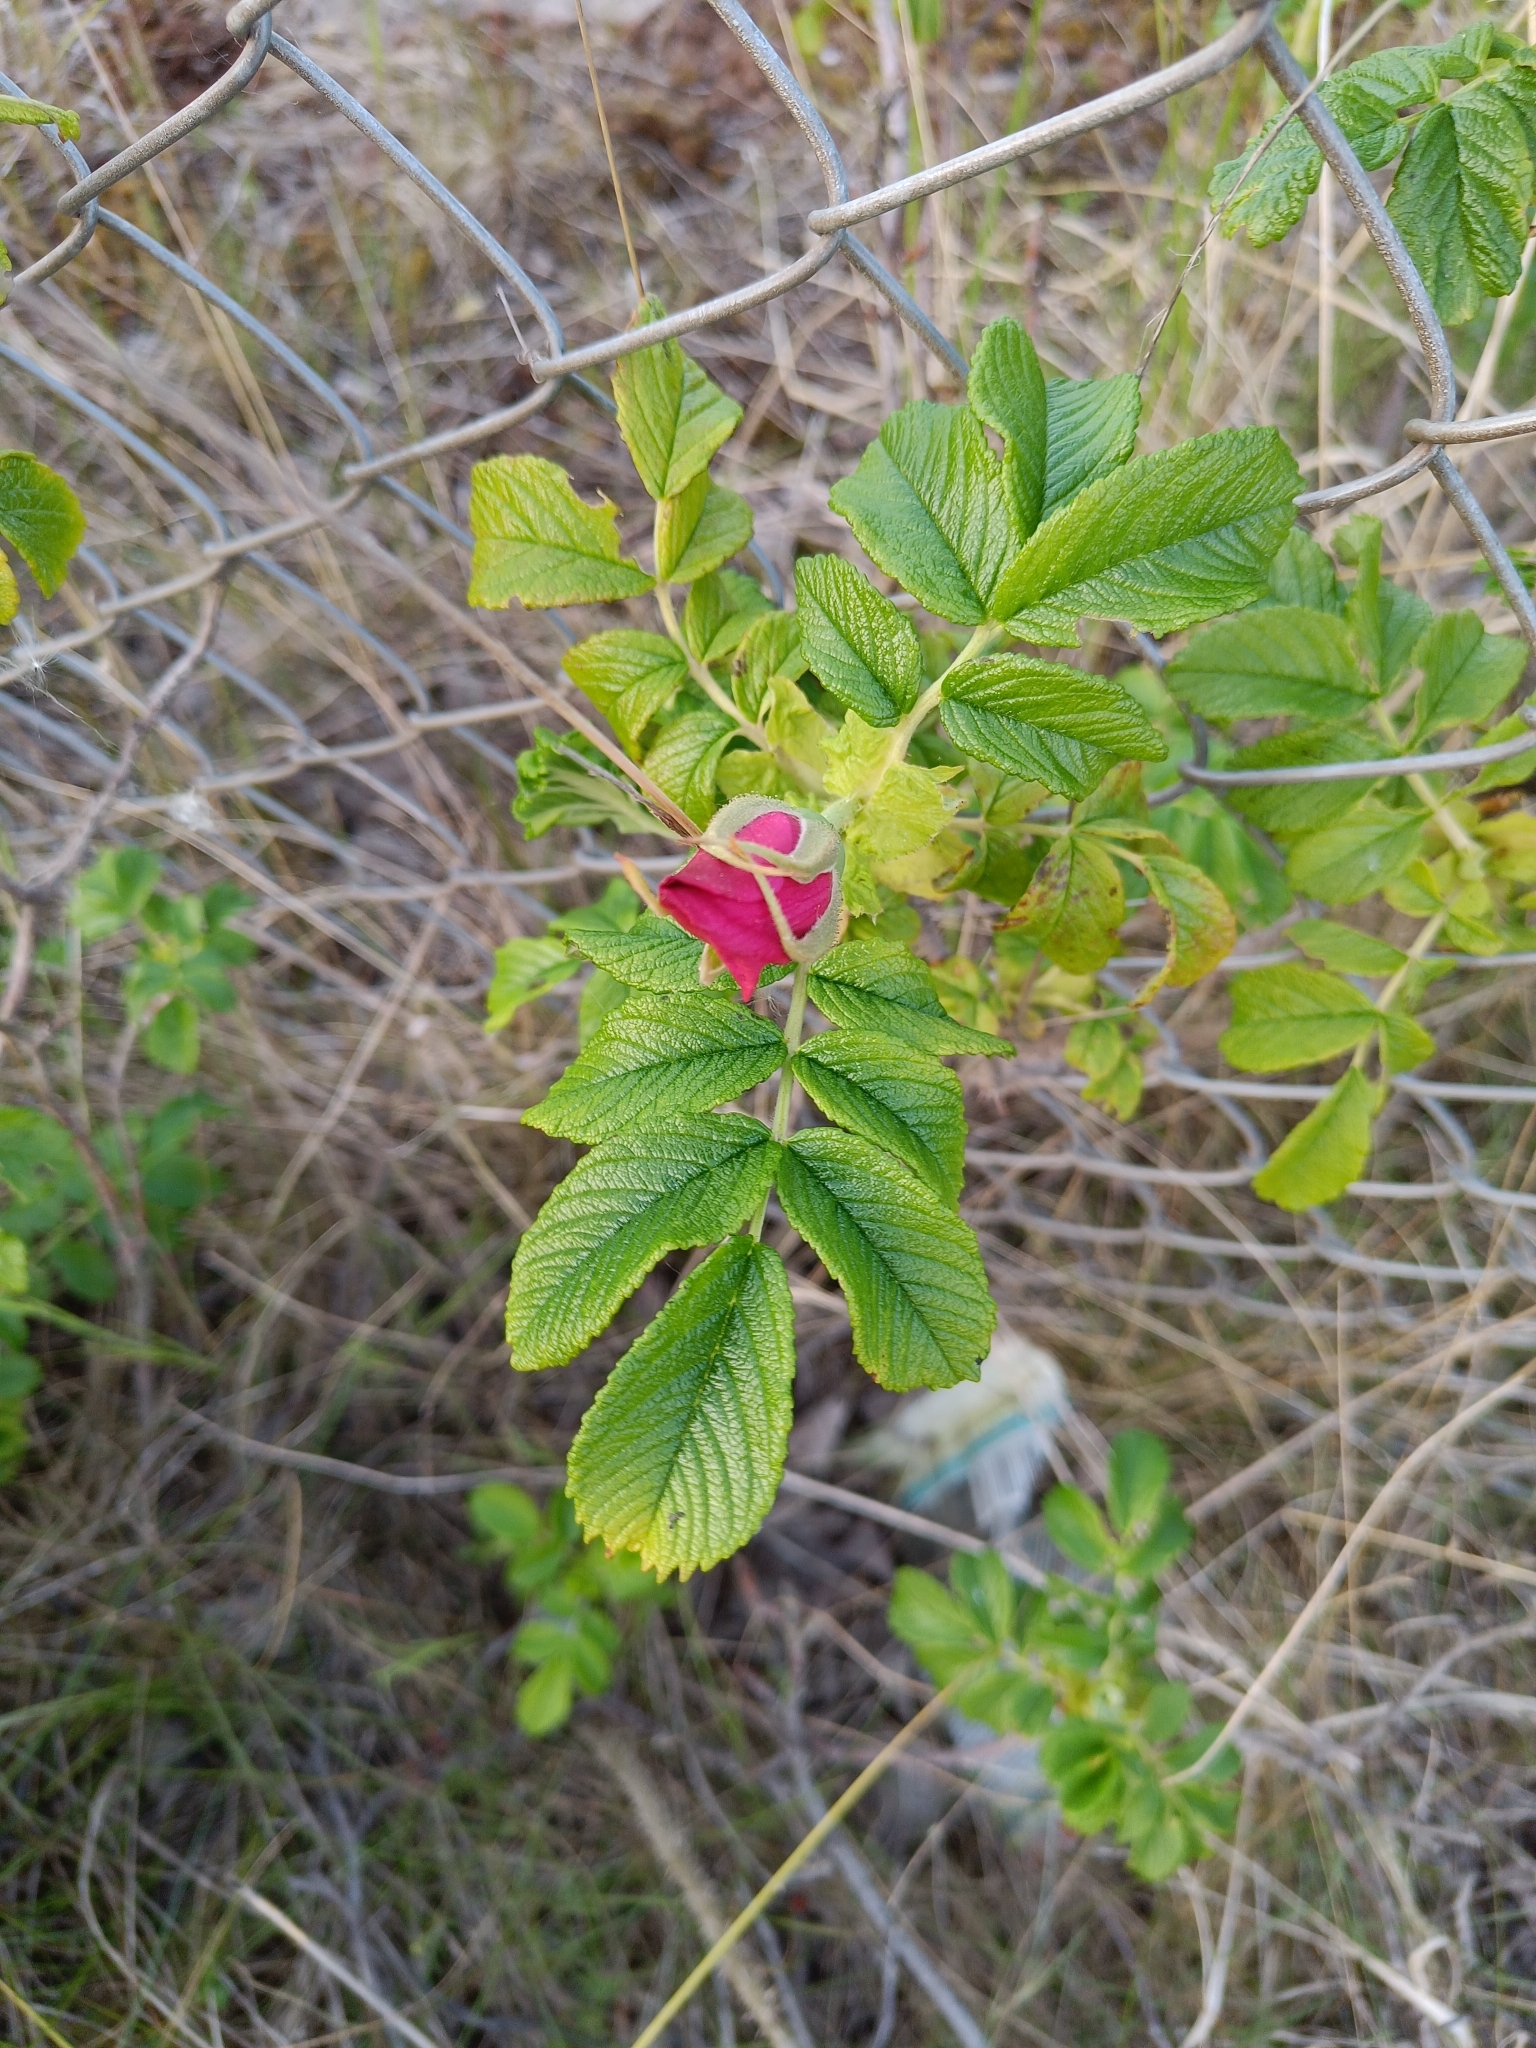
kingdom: Plantae
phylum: Tracheophyta
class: Magnoliopsida
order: Rosales
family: Rosaceae
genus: Rosa
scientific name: Rosa rugosa
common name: Japanese rose
